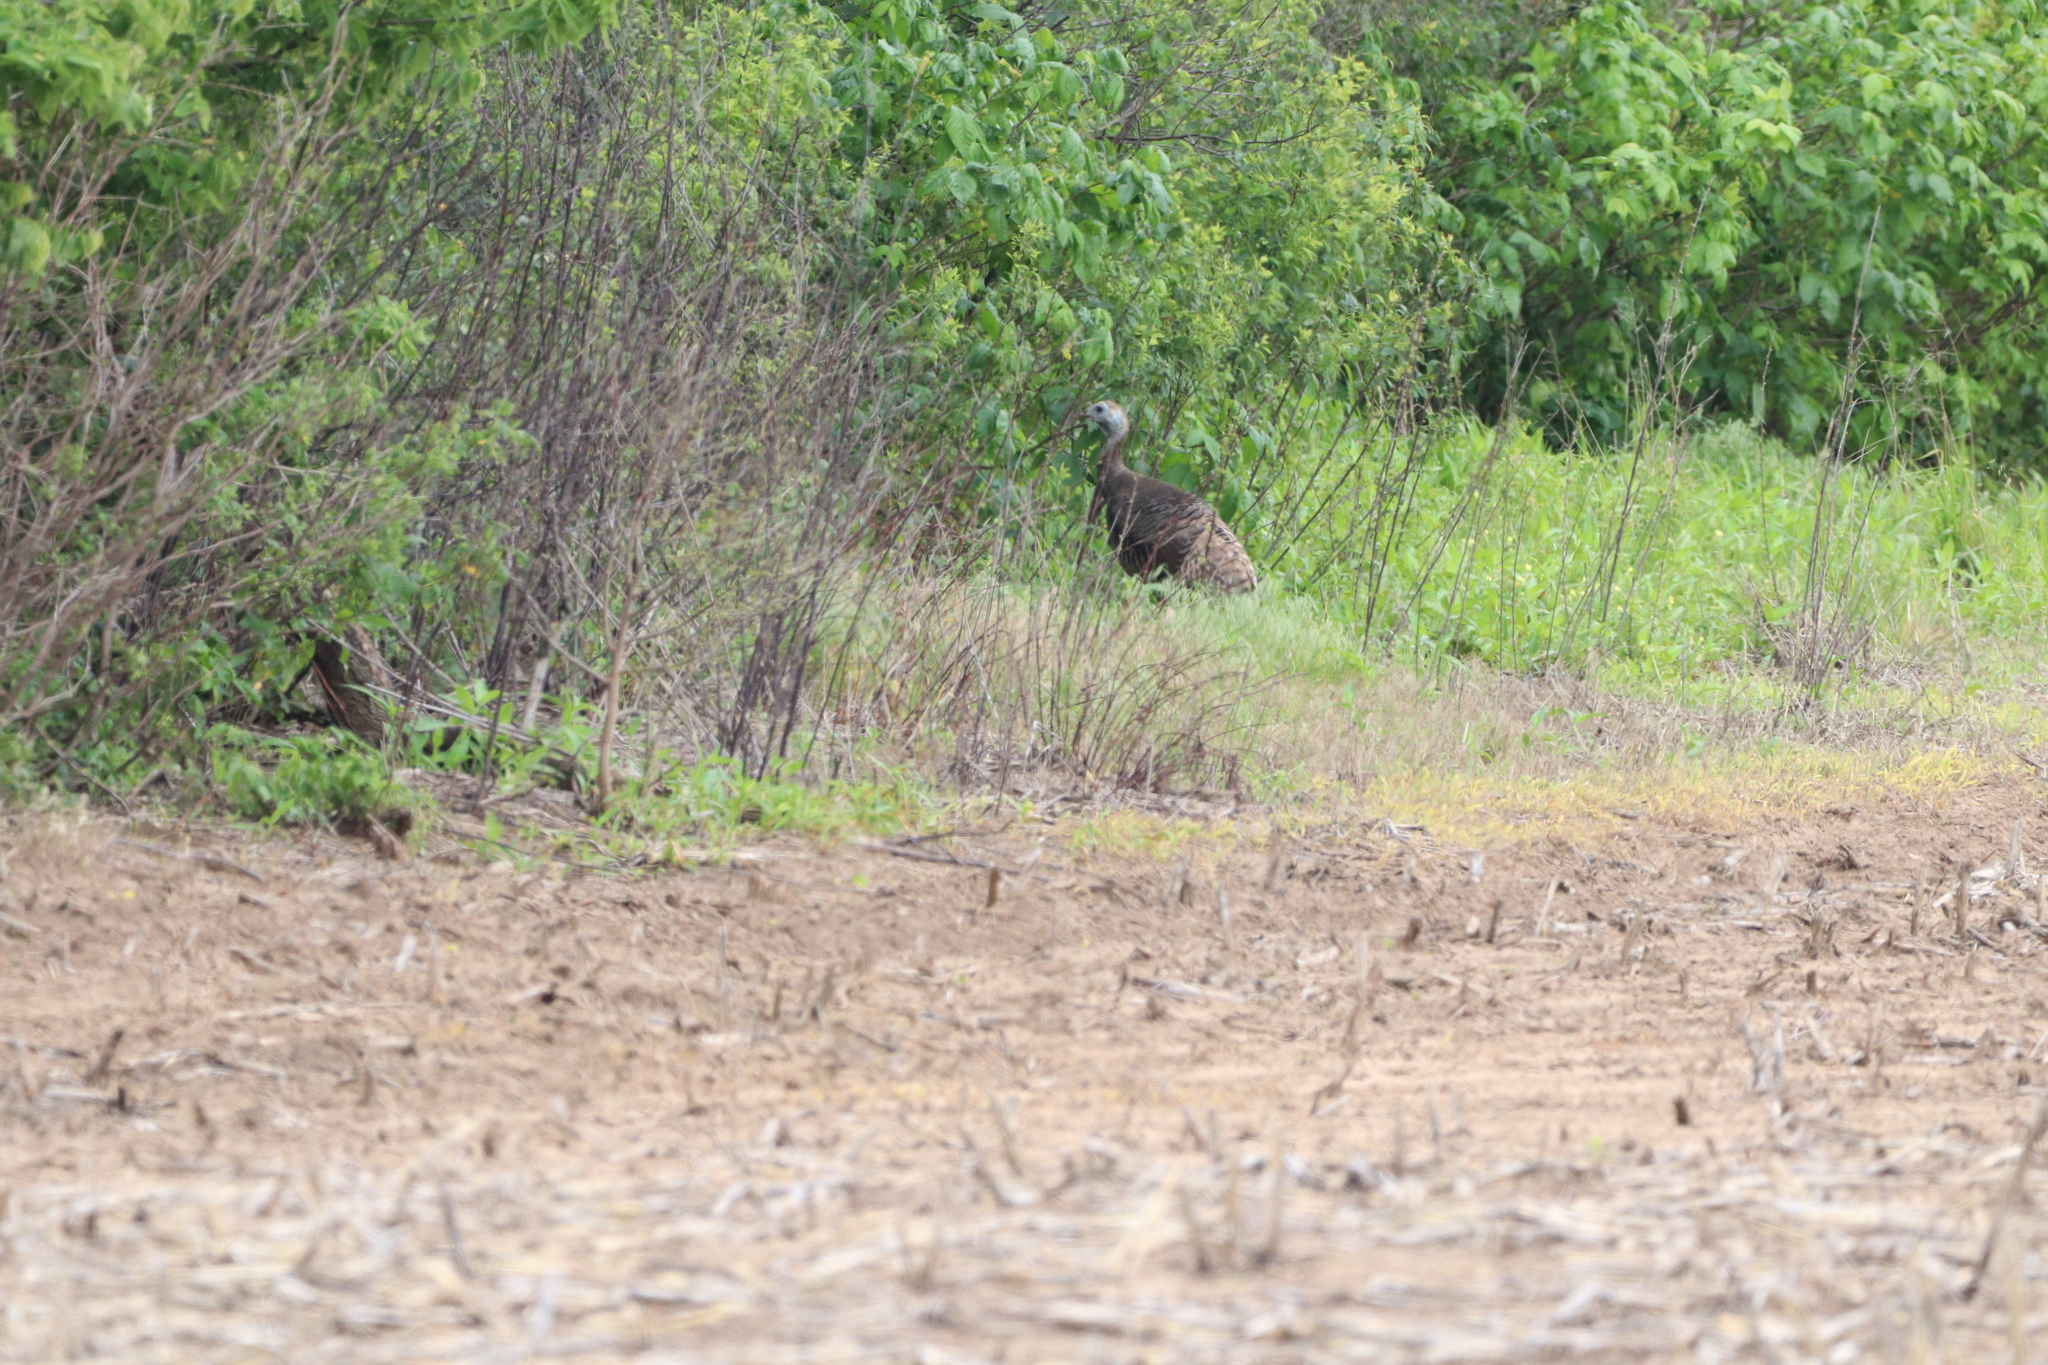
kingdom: Animalia
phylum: Chordata
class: Aves
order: Galliformes
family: Phasianidae
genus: Meleagris
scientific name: Meleagris gallopavo
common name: Wild turkey
